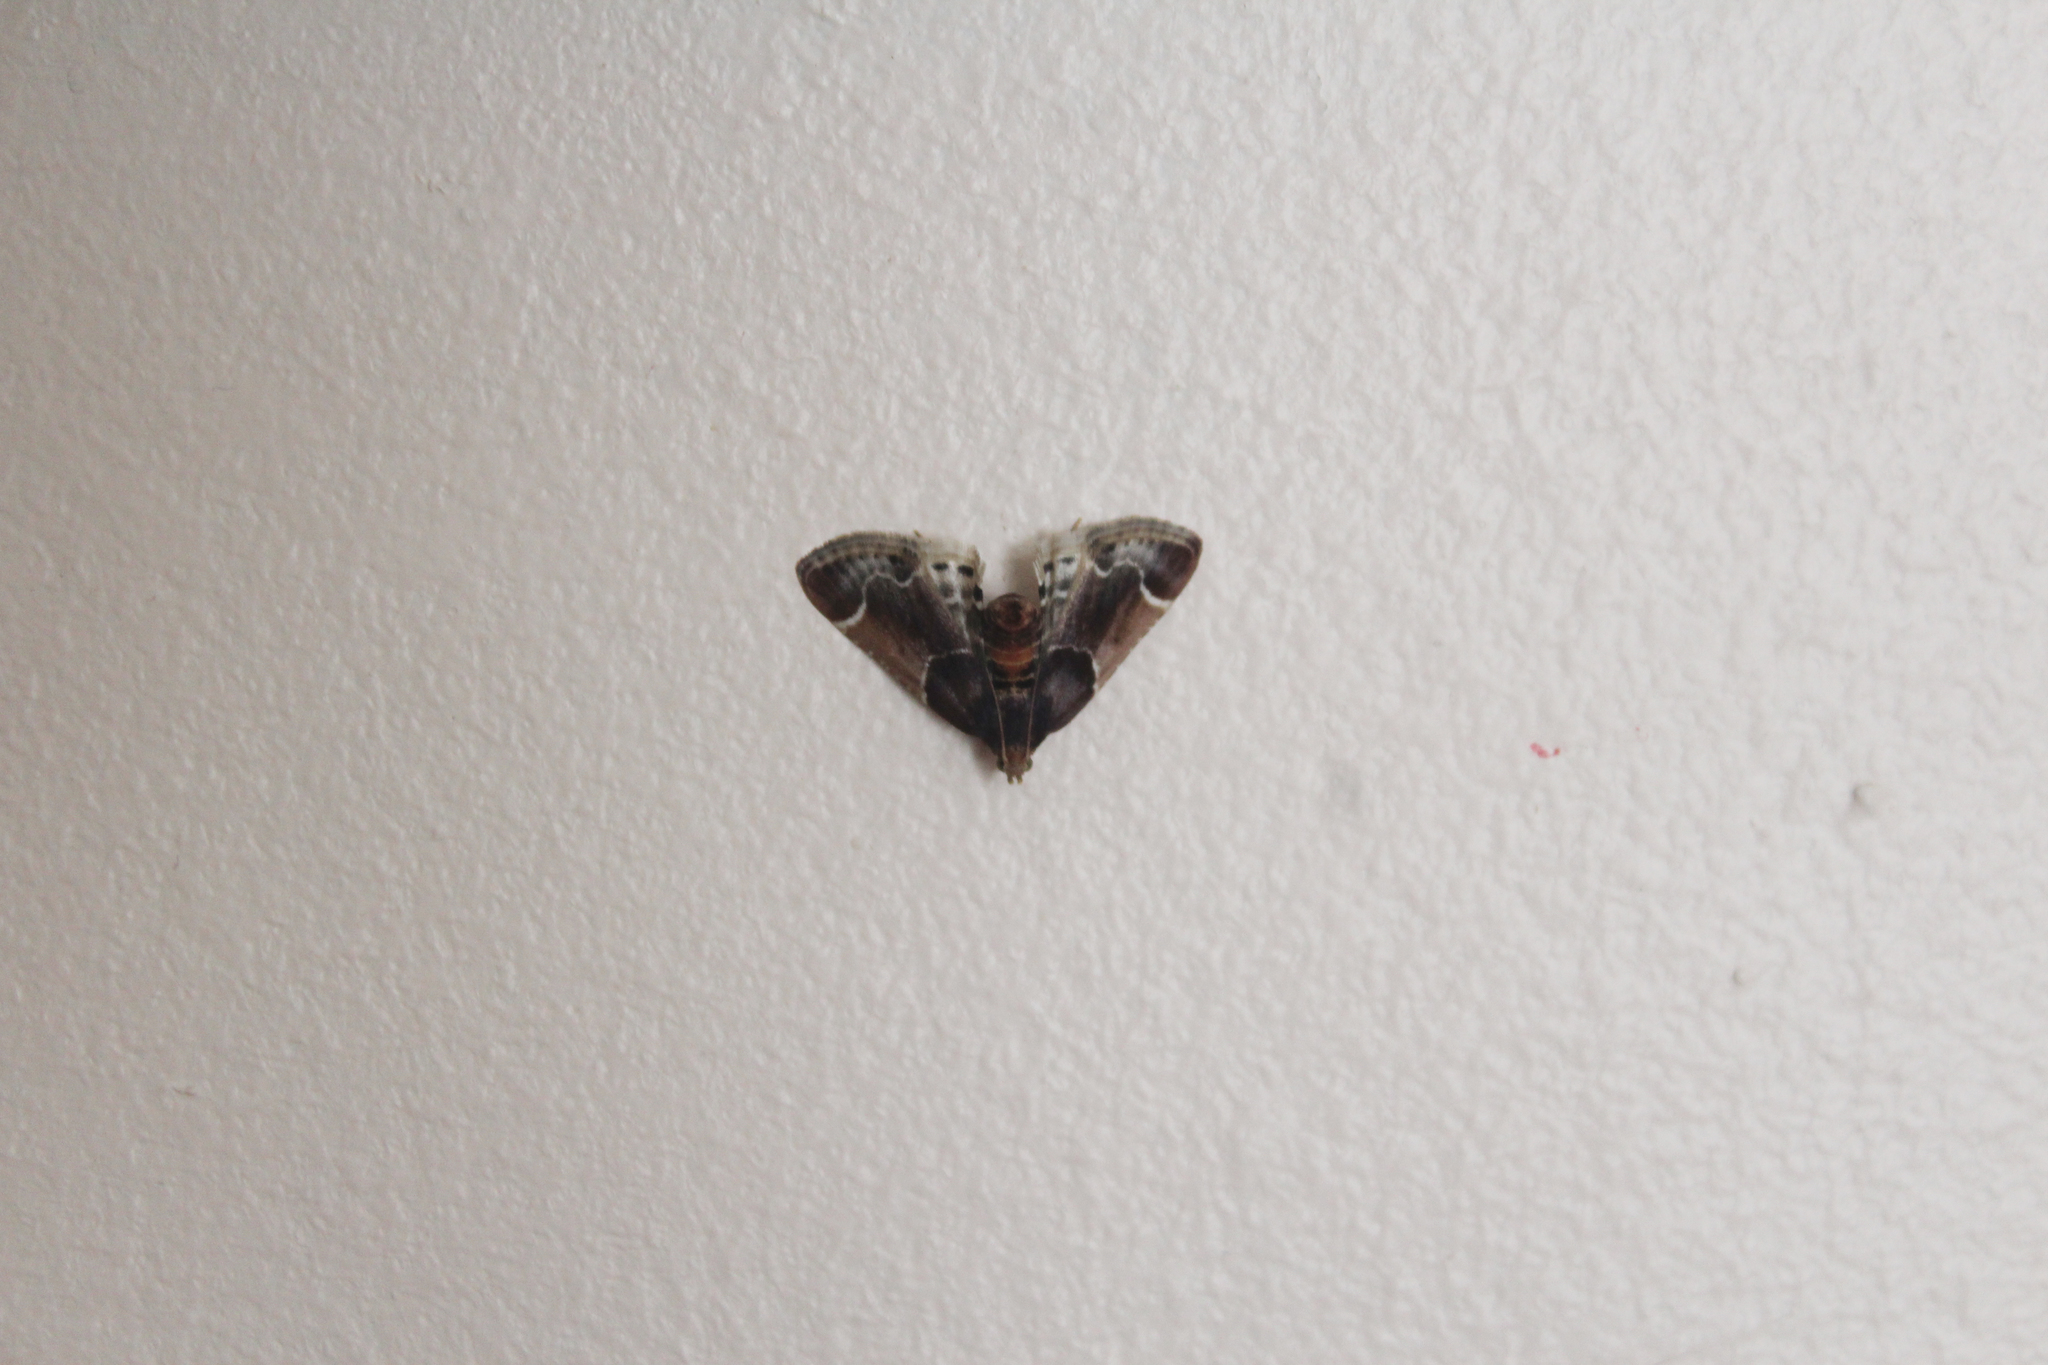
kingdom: Animalia
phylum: Arthropoda
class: Insecta
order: Lepidoptera
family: Pyralidae
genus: Pyralis
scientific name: Pyralis farinalis
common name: Meal moth
